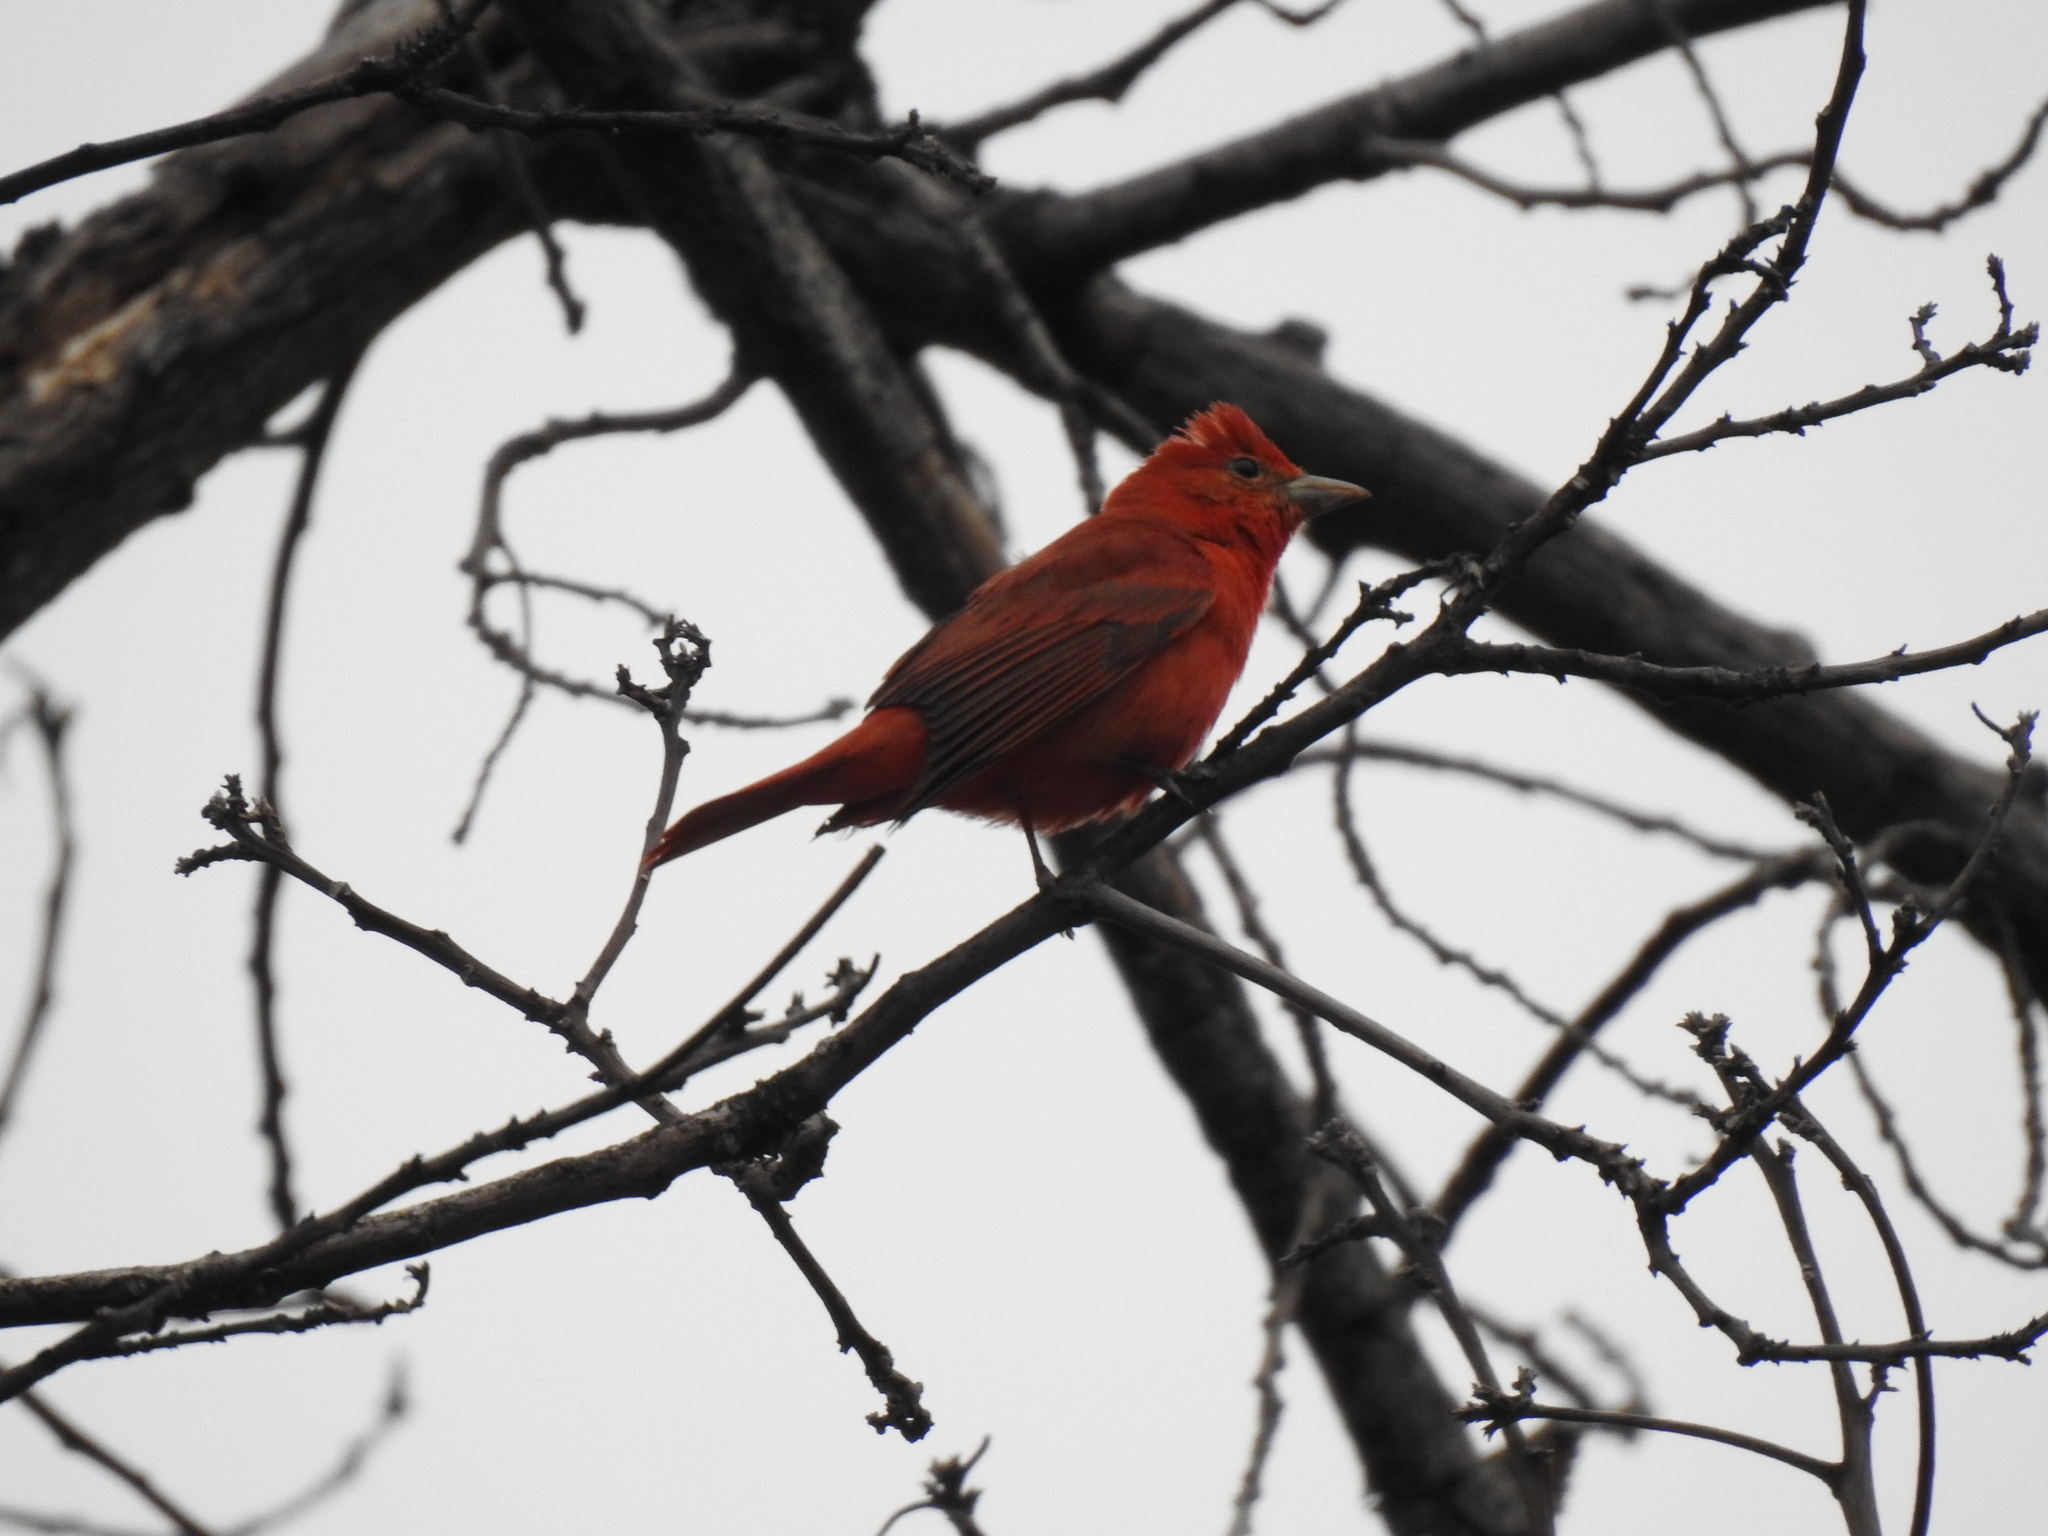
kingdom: Animalia
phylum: Chordata
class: Aves
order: Passeriformes
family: Cardinalidae
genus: Piranga
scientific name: Piranga rubra
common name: Summer tanager
